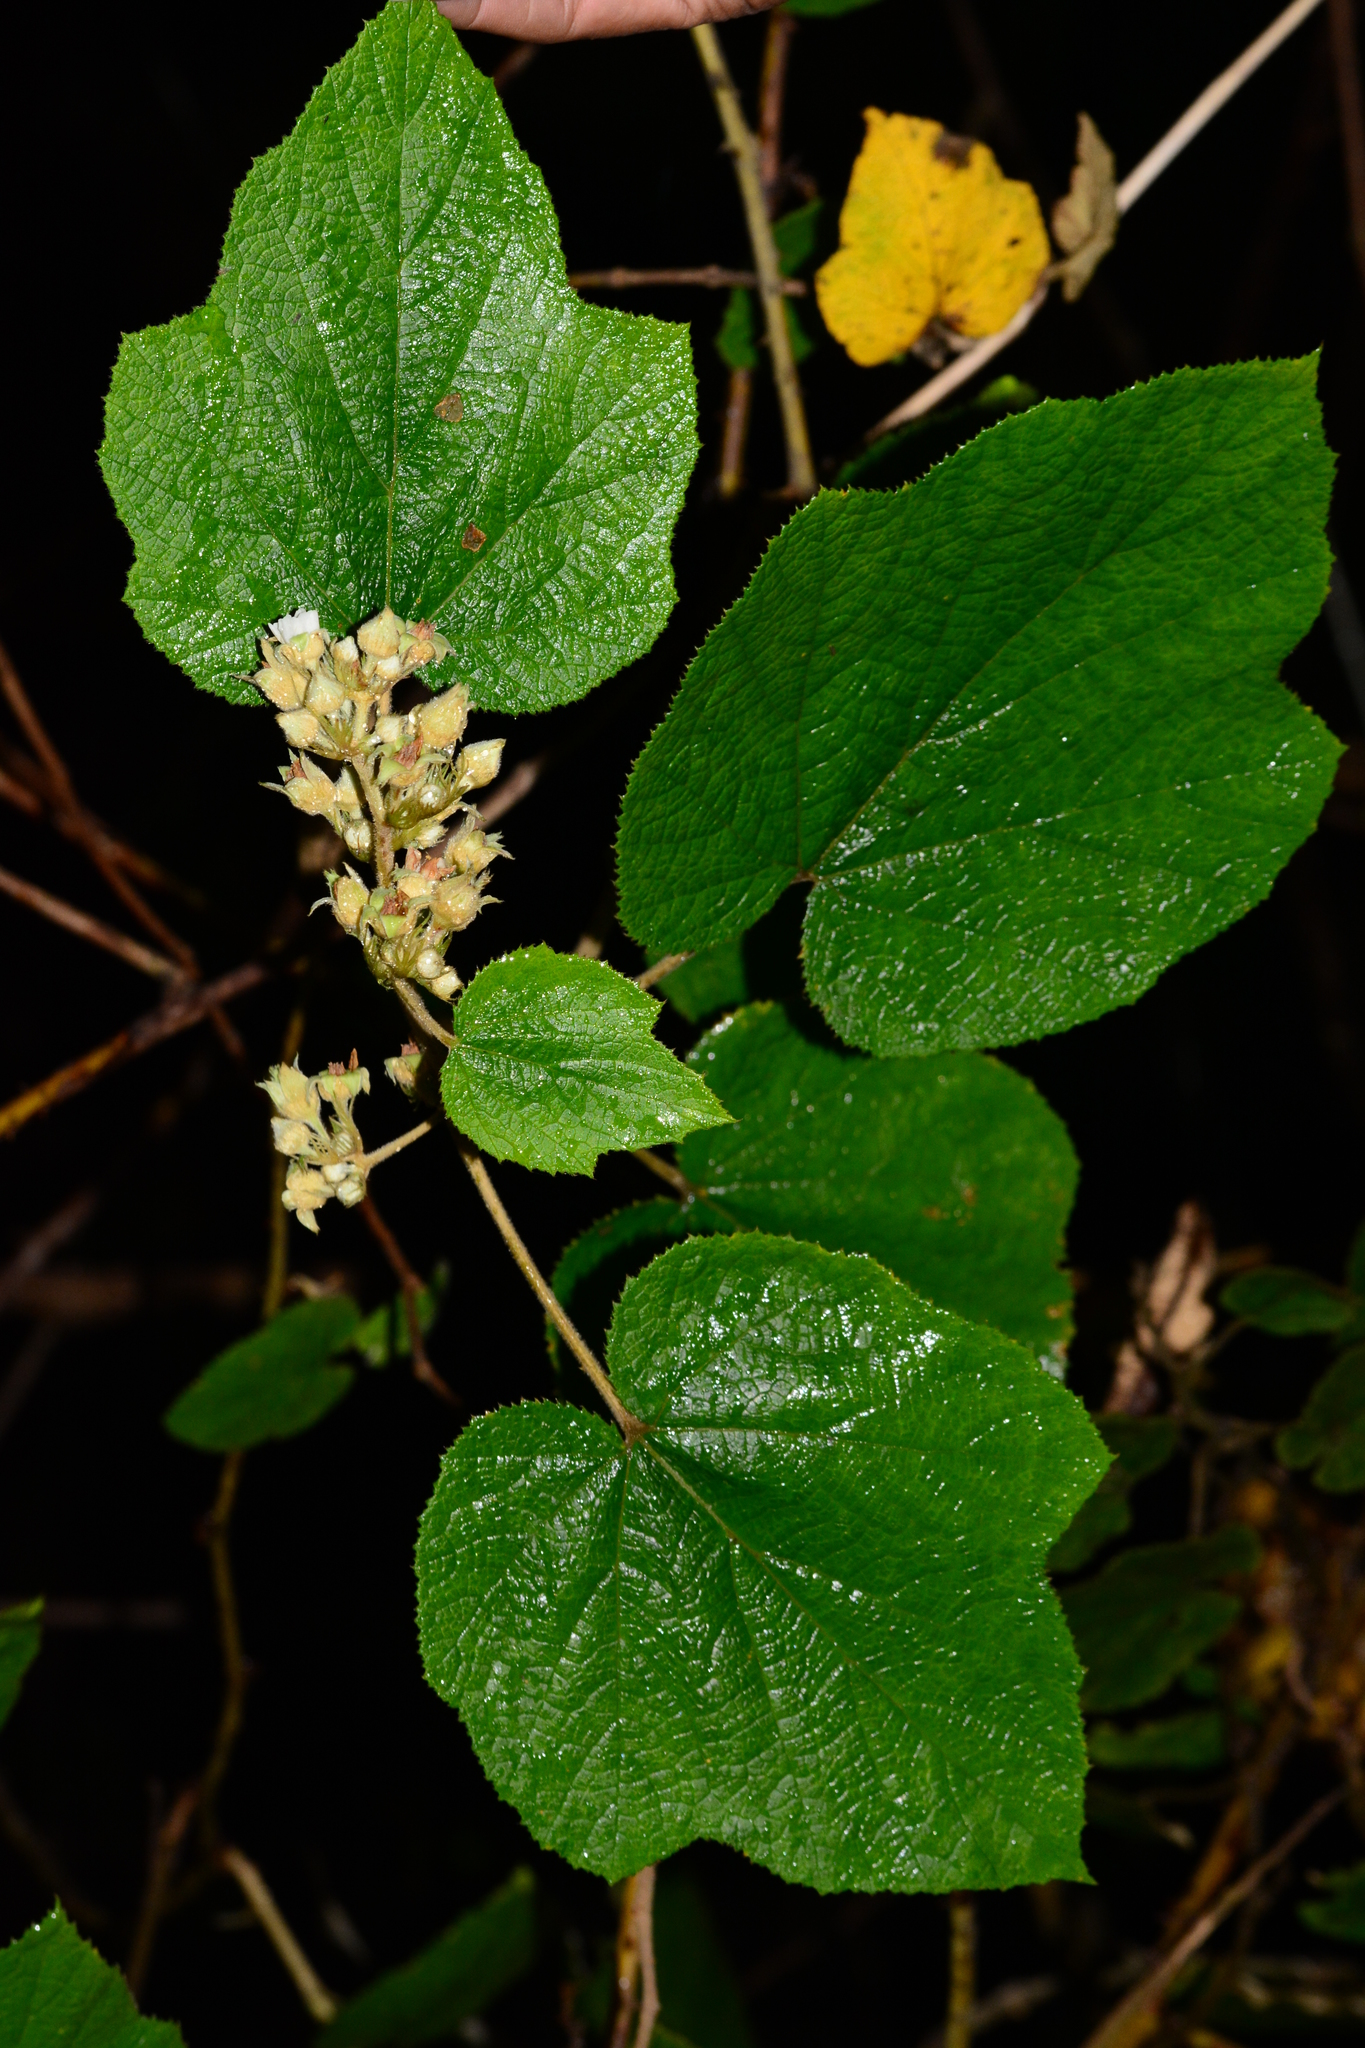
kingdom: Plantae
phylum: Tracheophyta
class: Magnoliopsida
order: Rosales
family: Rosaceae
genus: Rubus
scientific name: Rubus moluccanus
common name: Wild raspberry
